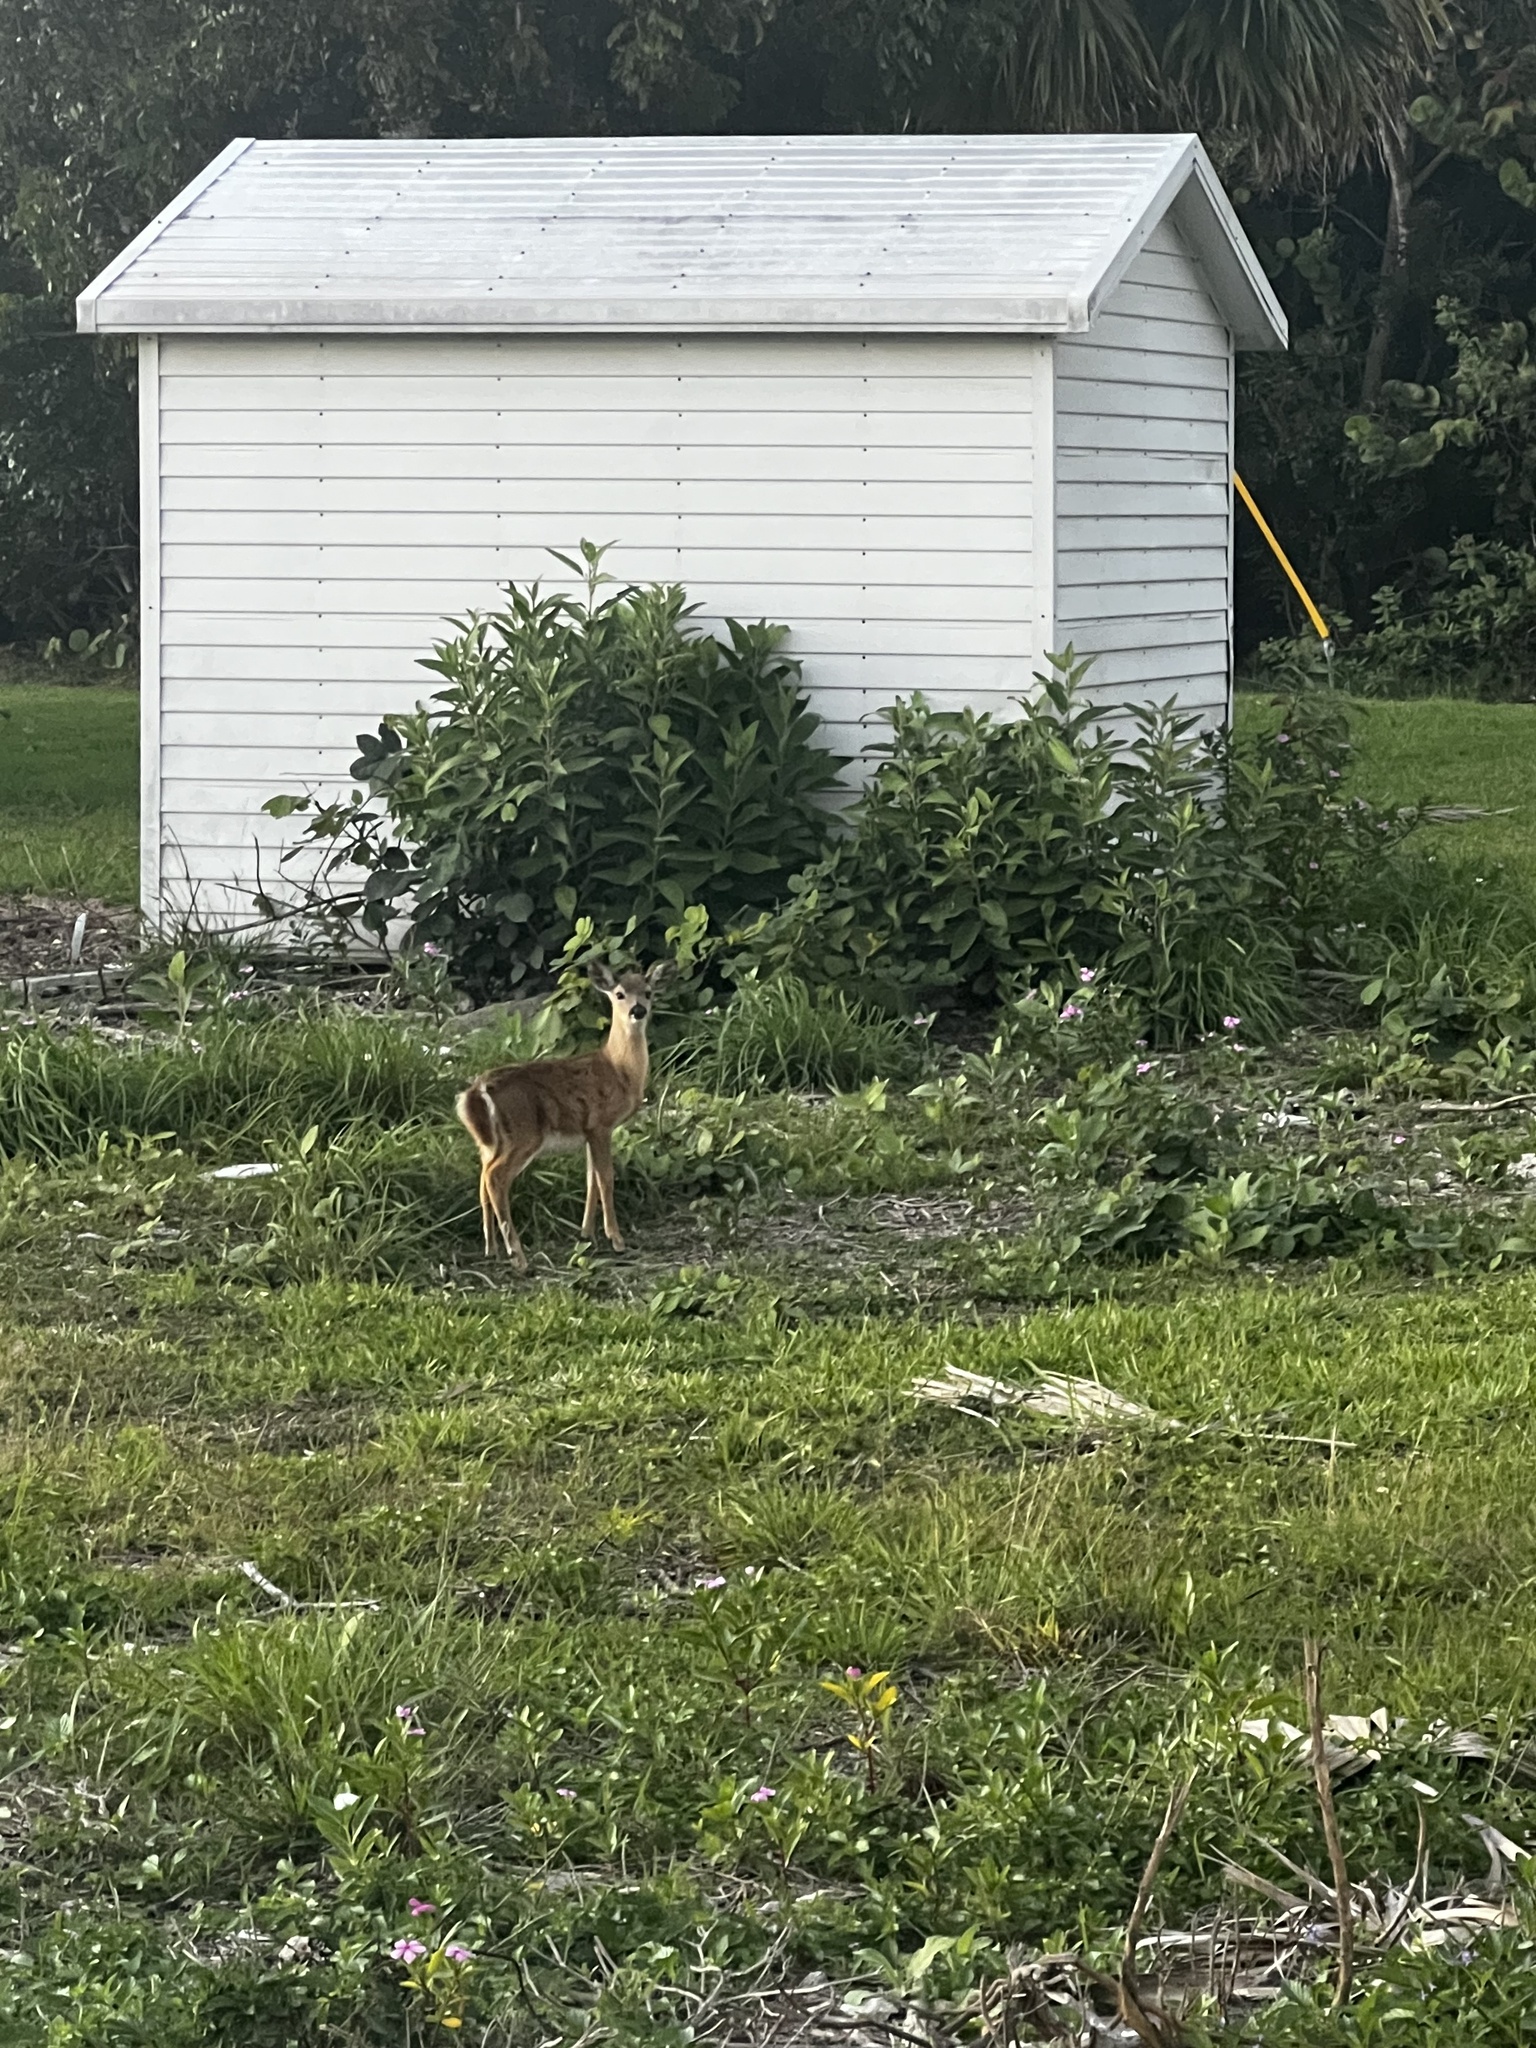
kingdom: Animalia
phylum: Chordata
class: Mammalia
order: Artiodactyla
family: Cervidae
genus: Odocoileus
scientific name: Odocoileus virginianus
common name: White-tailed deer
